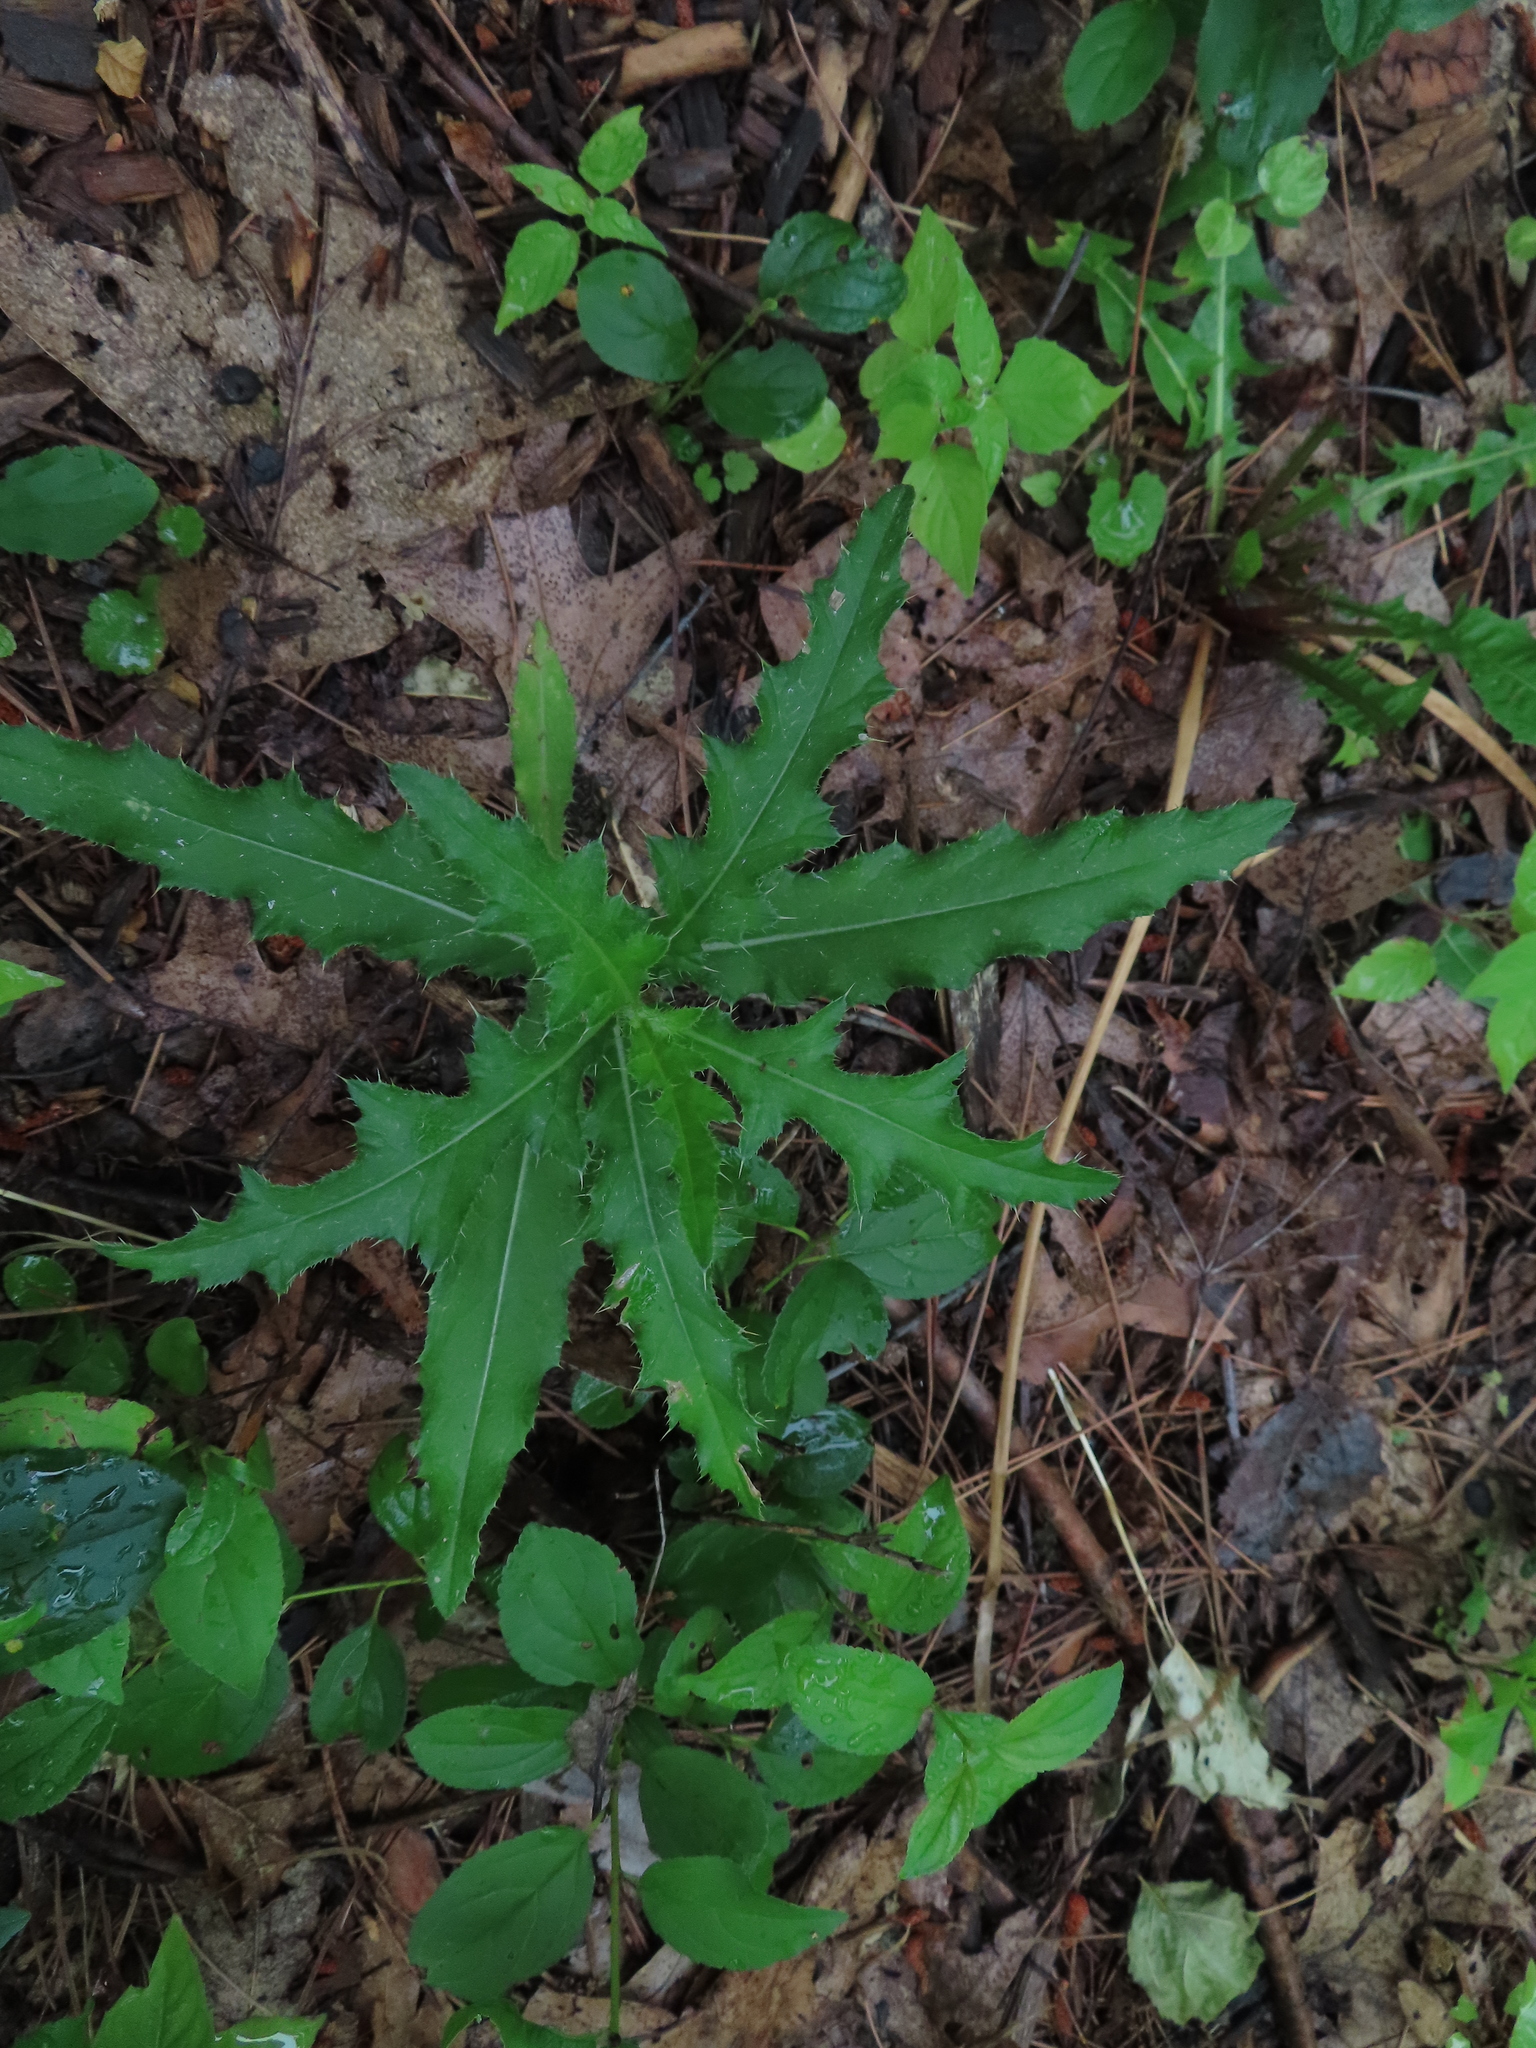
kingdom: Plantae
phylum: Tracheophyta
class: Magnoliopsida
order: Asterales
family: Asteraceae
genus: Cirsium
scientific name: Cirsium arvense
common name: Creeping thistle
